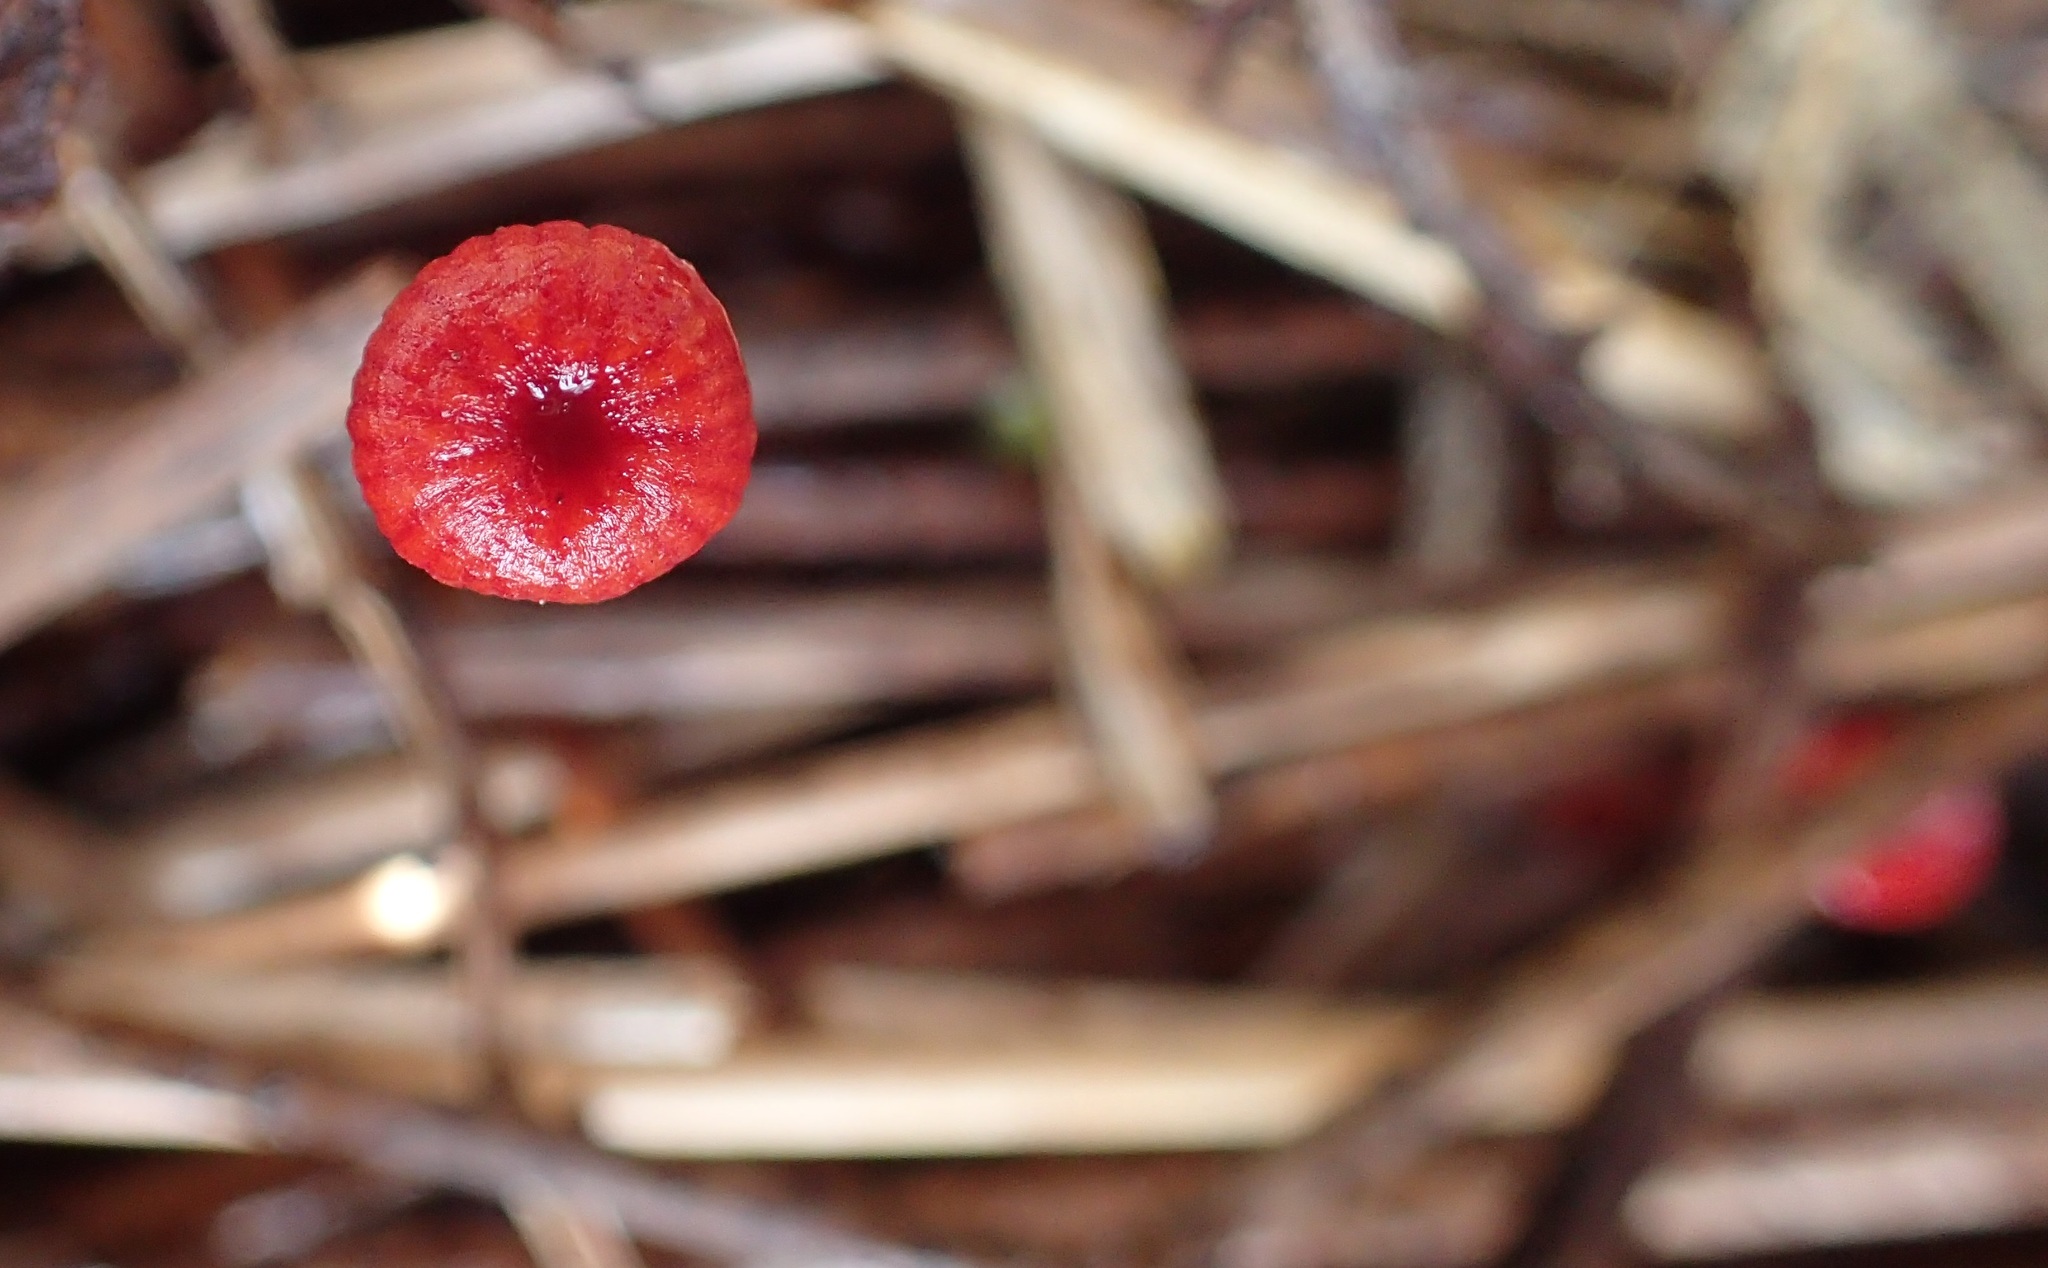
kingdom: Fungi
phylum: Basidiomycota
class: Agaricomycetes
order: Agaricales
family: Mycenaceae
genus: Cruentomycena
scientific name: Cruentomycena viscidocruenta
